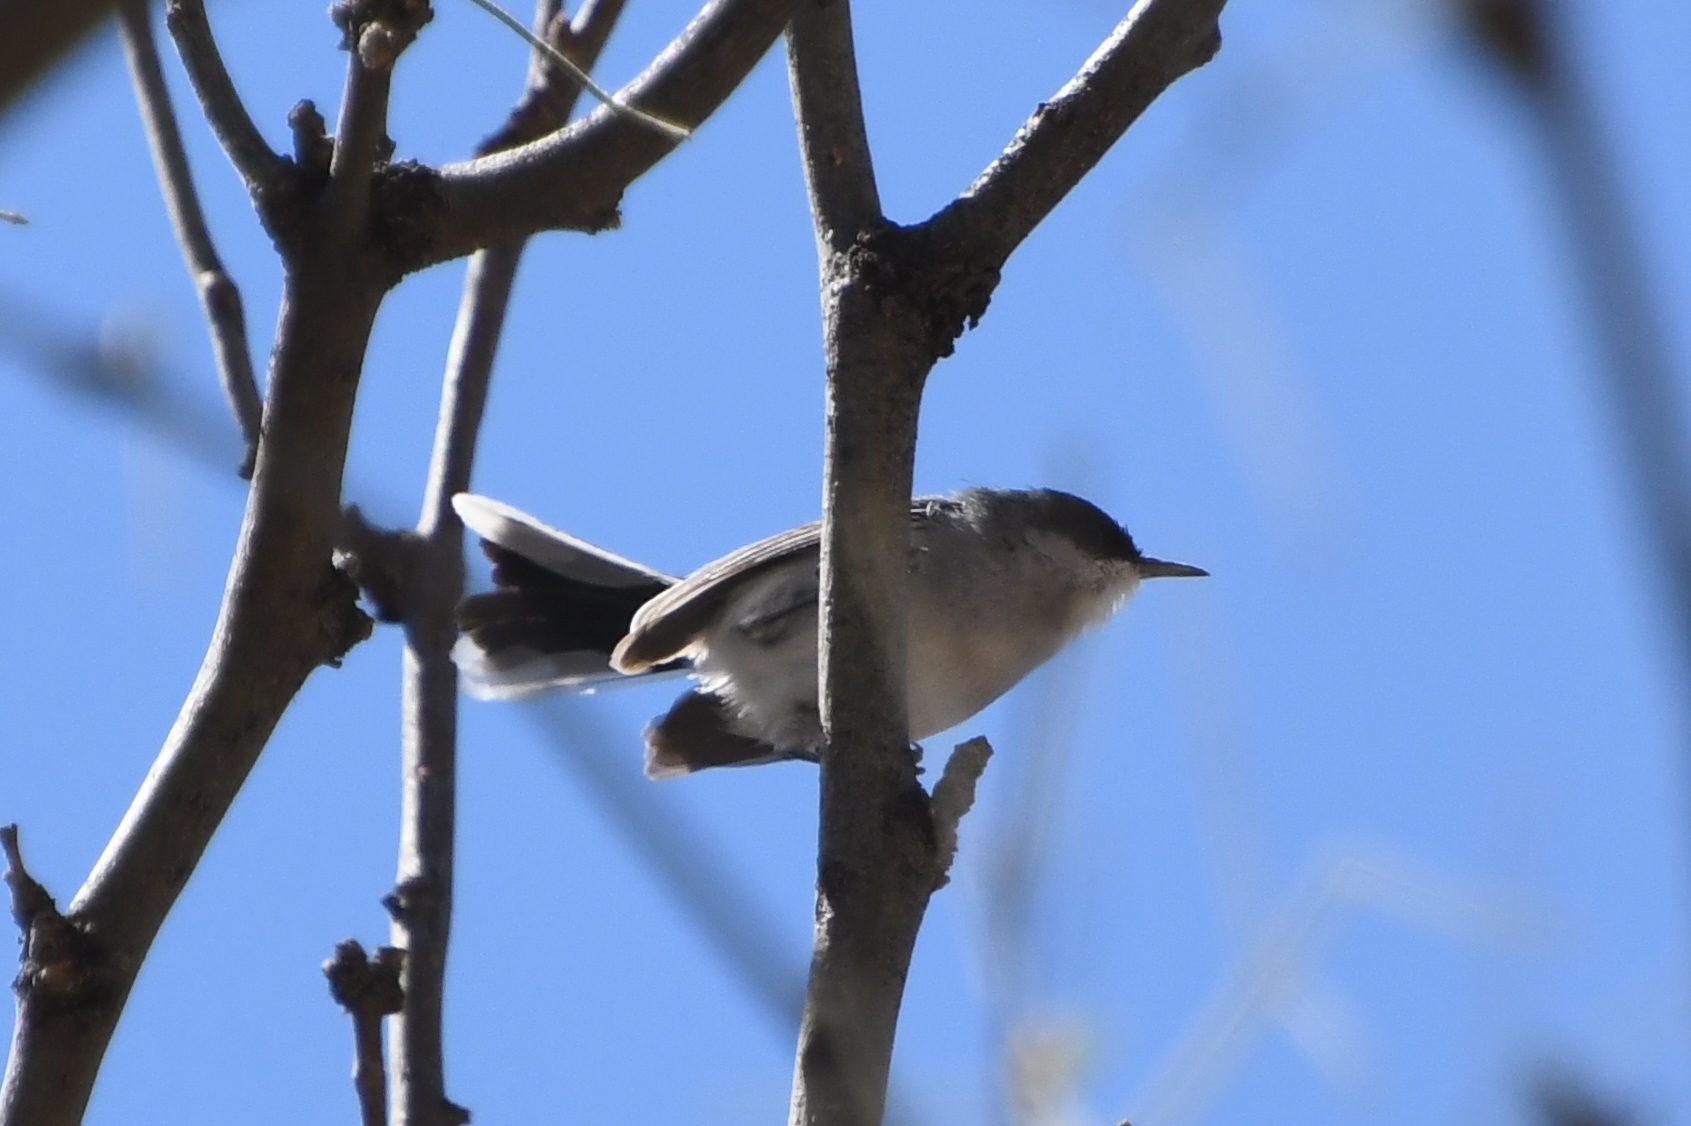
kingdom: Animalia
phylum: Chordata
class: Aves
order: Passeriformes
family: Polioptilidae
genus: Polioptila
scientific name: Polioptila nigriceps
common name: Black-capped gnatcatcher
